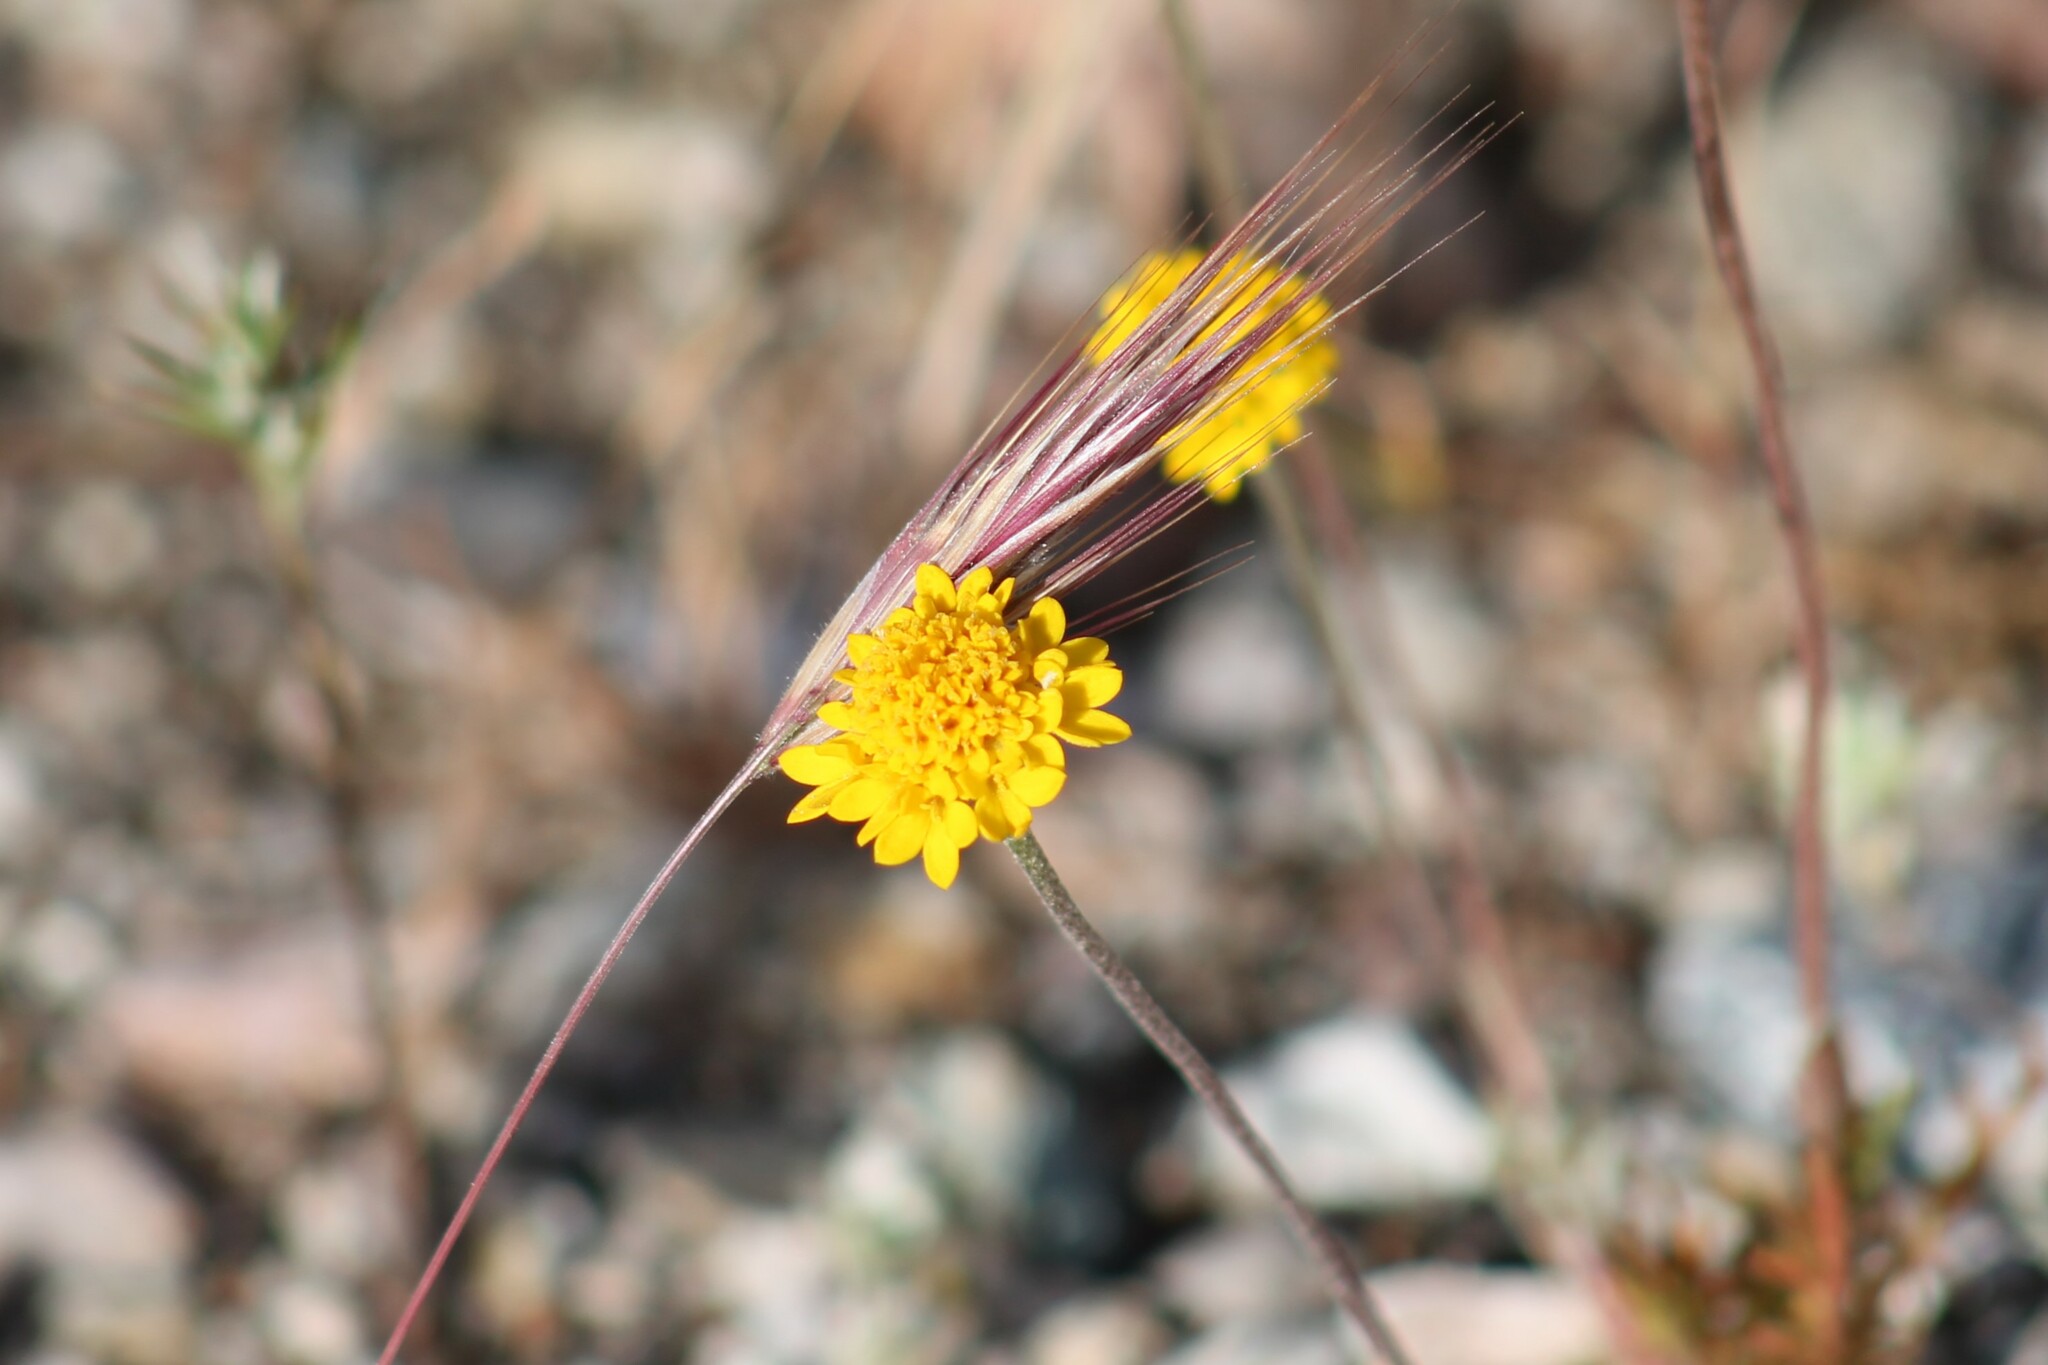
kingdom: Plantae
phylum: Tracheophyta
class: Magnoliopsida
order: Asterales
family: Asteraceae
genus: Chaenactis
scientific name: Chaenactis glabriuscula
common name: Yellow pincushion
